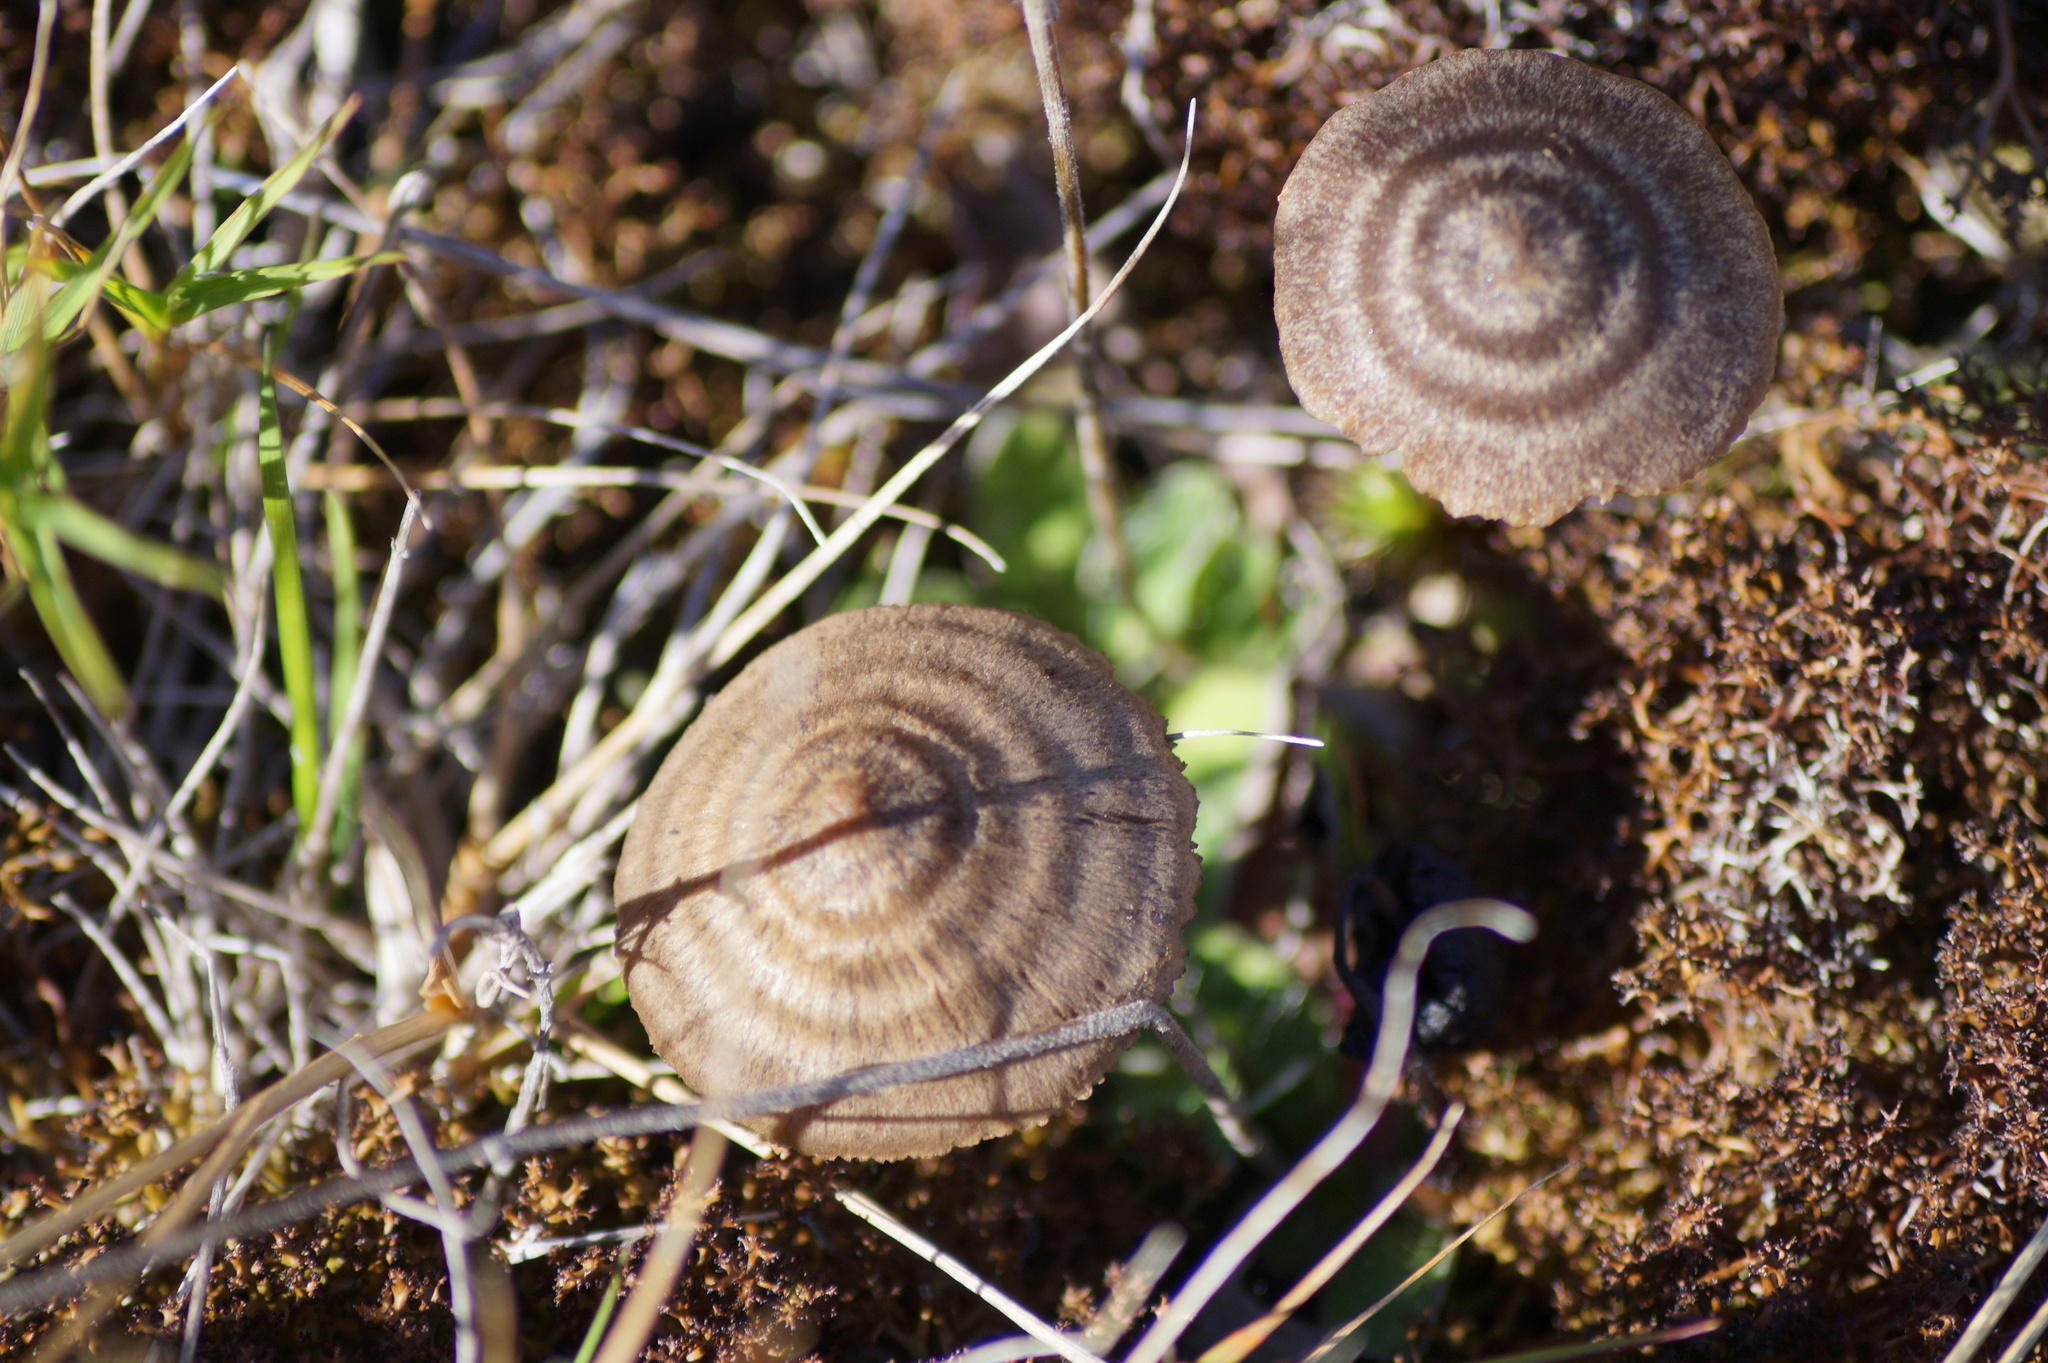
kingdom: Fungi
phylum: Basidiomycota
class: Agaricomycetes
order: Agaricales
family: Entolomataceae
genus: Entoloma
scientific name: Entoloma perzonatum
